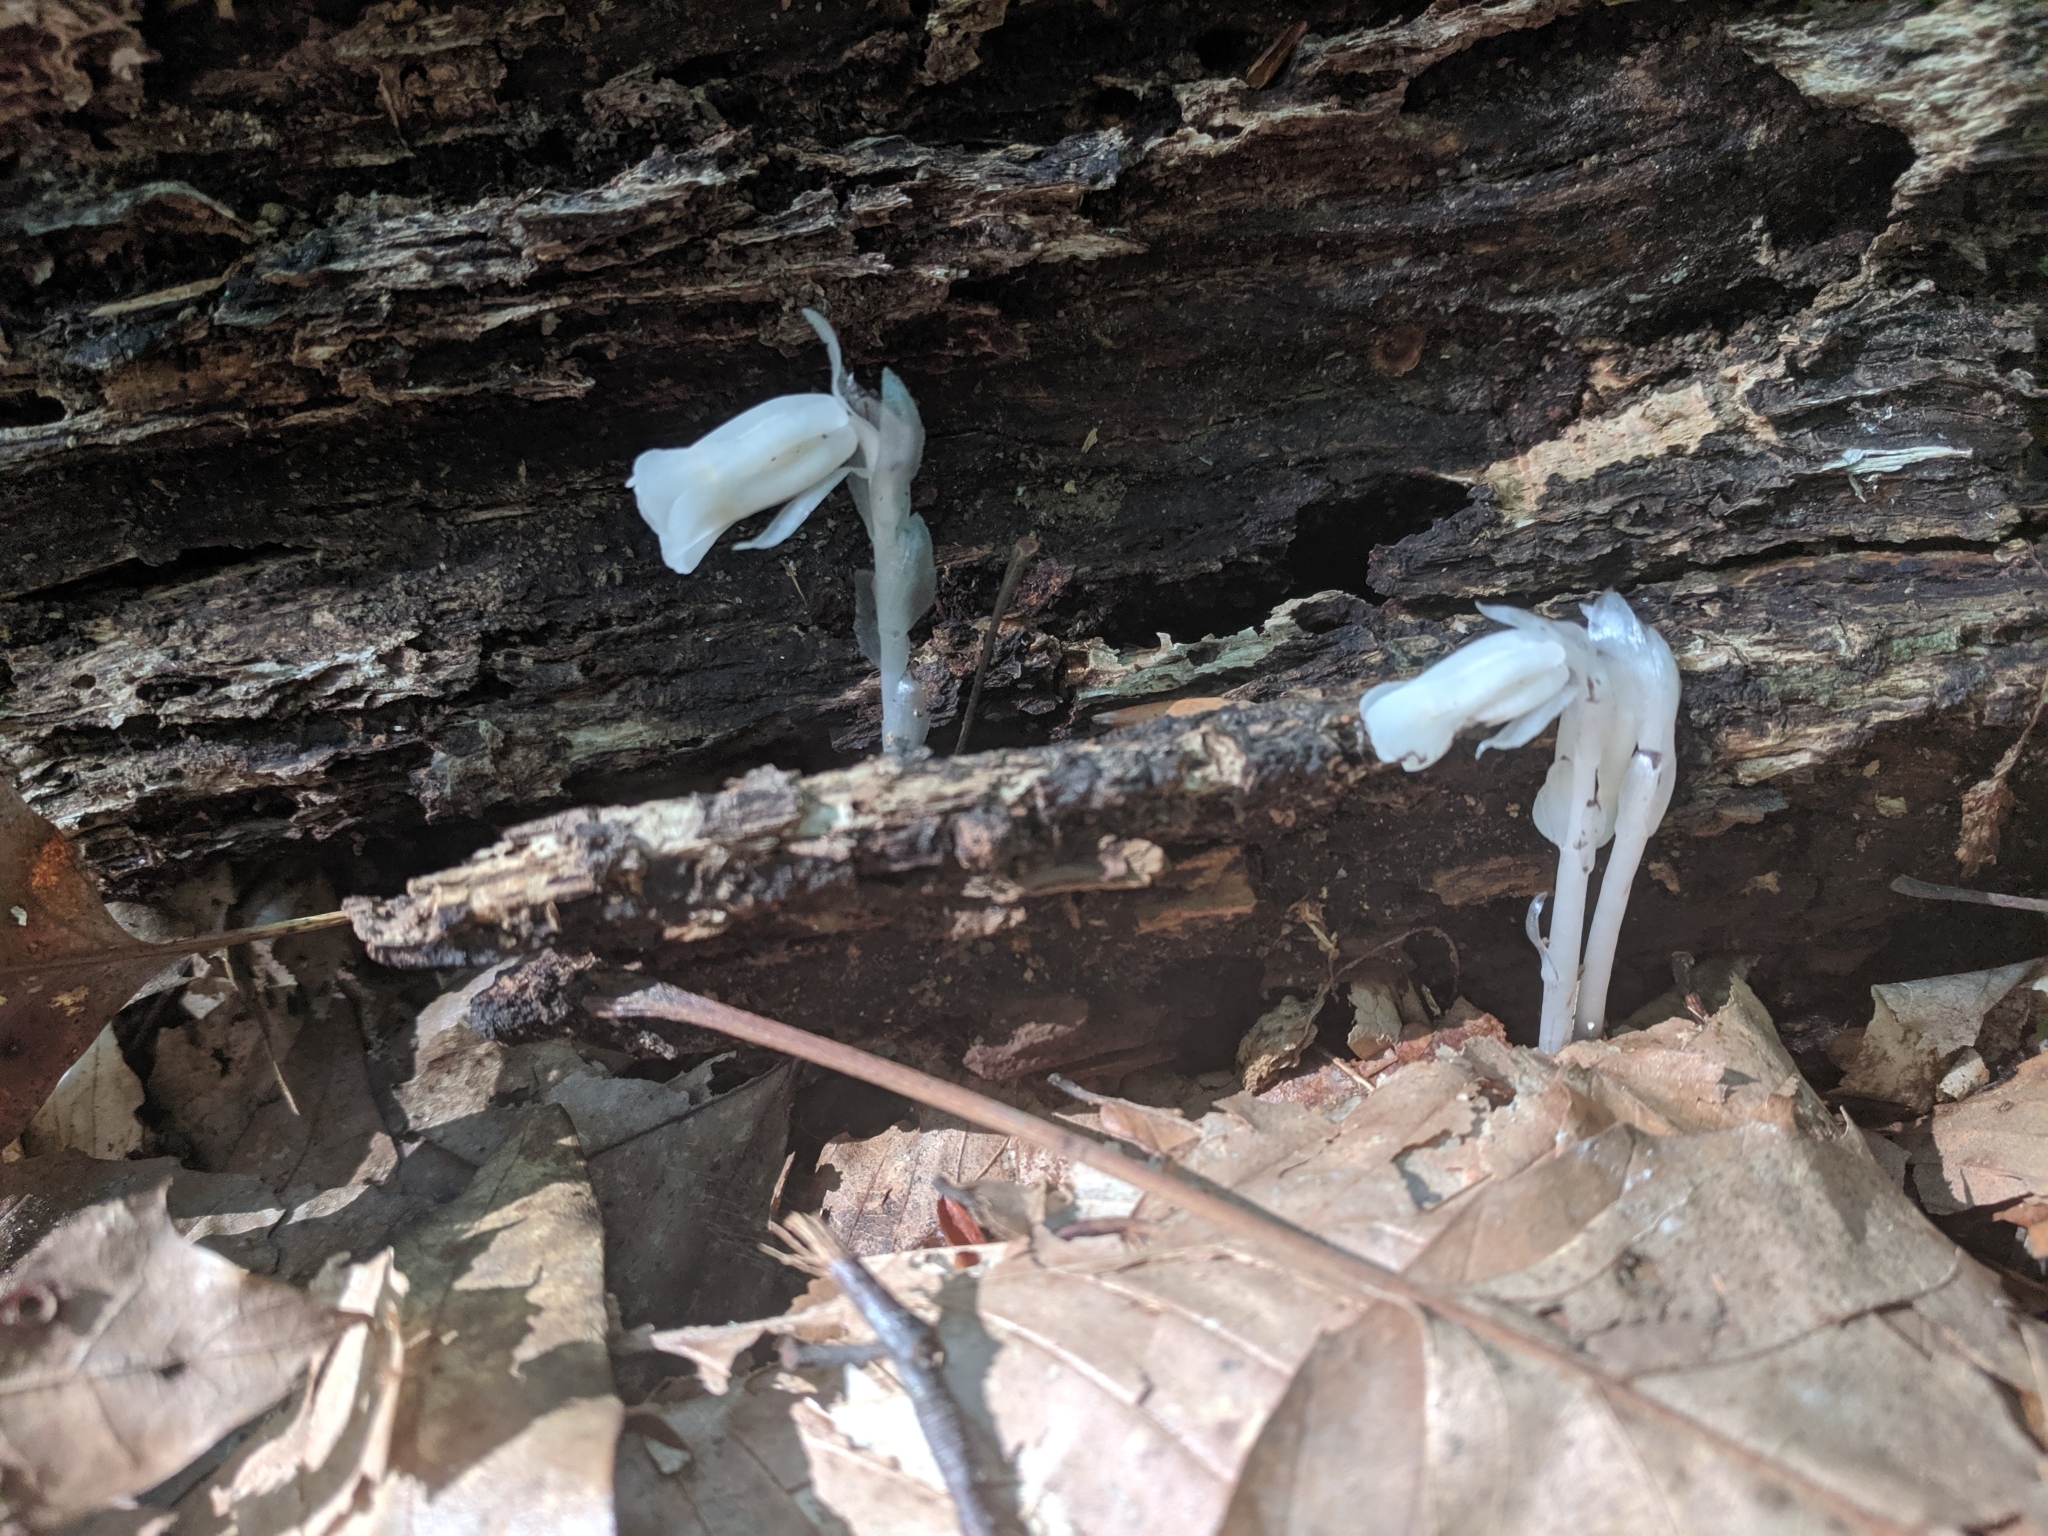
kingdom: Plantae
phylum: Tracheophyta
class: Magnoliopsida
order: Ericales
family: Ericaceae
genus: Monotropa
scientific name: Monotropa uniflora
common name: Convulsion root
